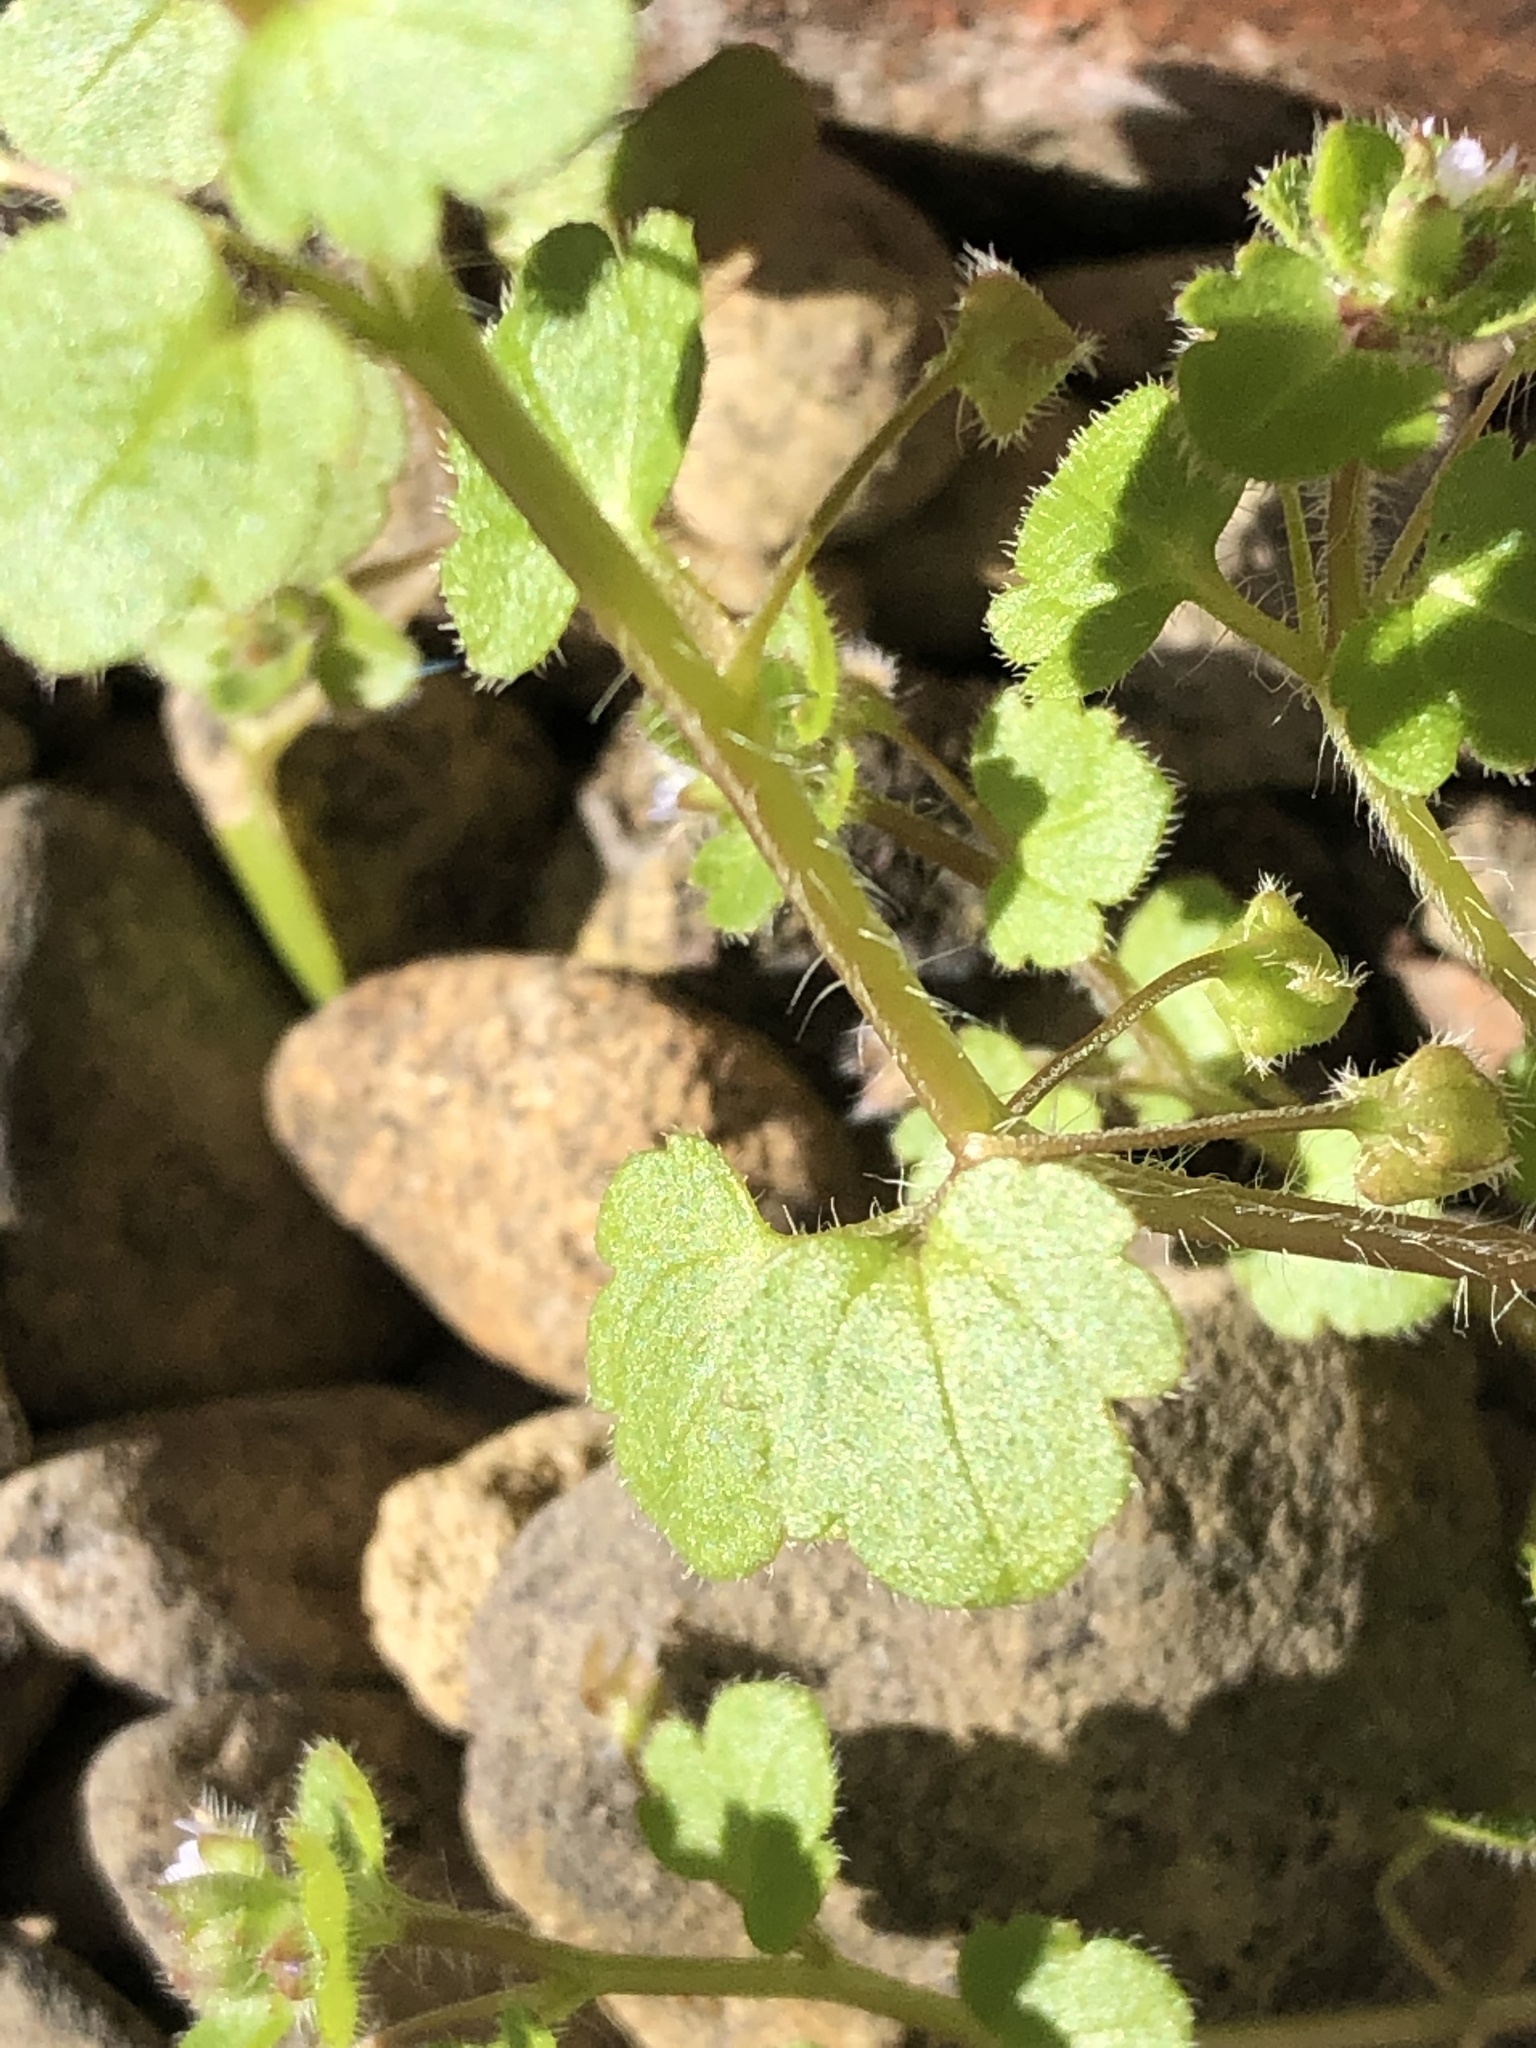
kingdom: Plantae
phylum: Tracheophyta
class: Magnoliopsida
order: Lamiales
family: Plantaginaceae
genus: Veronica
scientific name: Veronica sublobata
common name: False ivy-leaved speedwell
